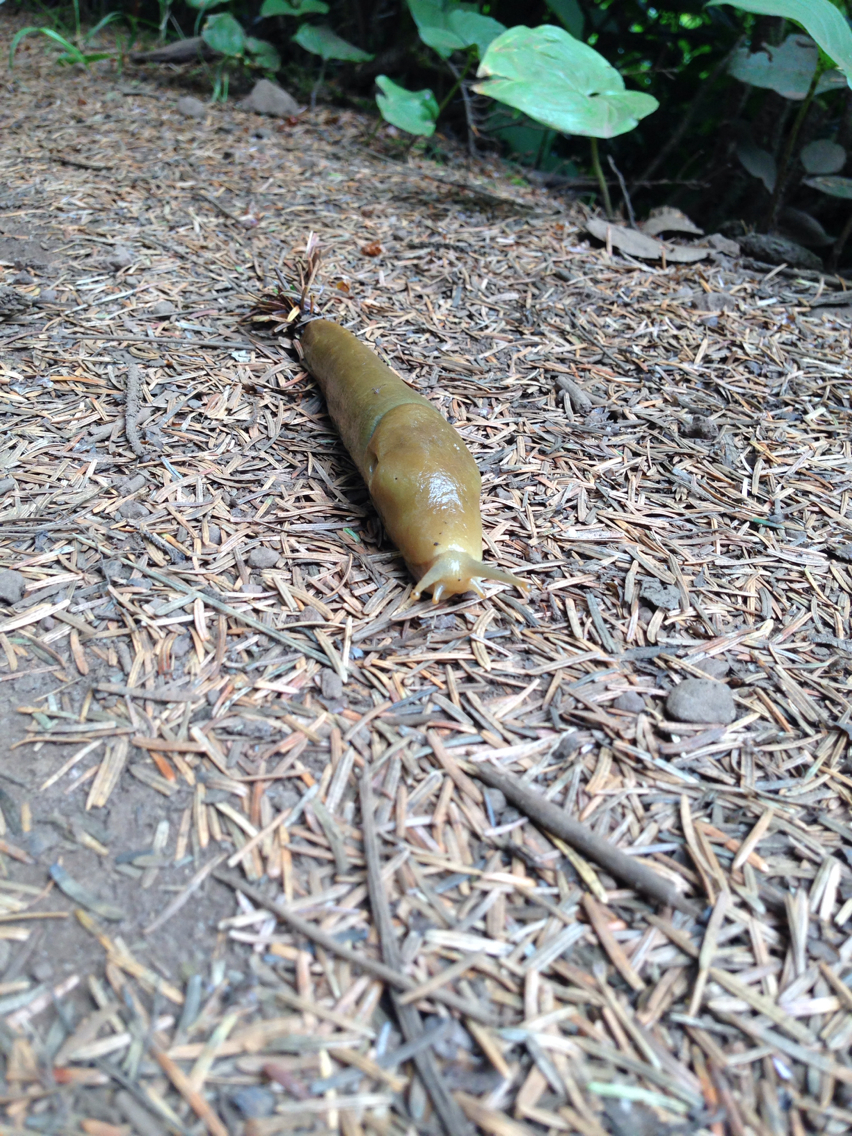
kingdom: Animalia
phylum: Mollusca
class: Gastropoda
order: Stylommatophora
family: Ariolimacidae
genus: Ariolimax
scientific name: Ariolimax columbianus
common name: Pacific banana slug
